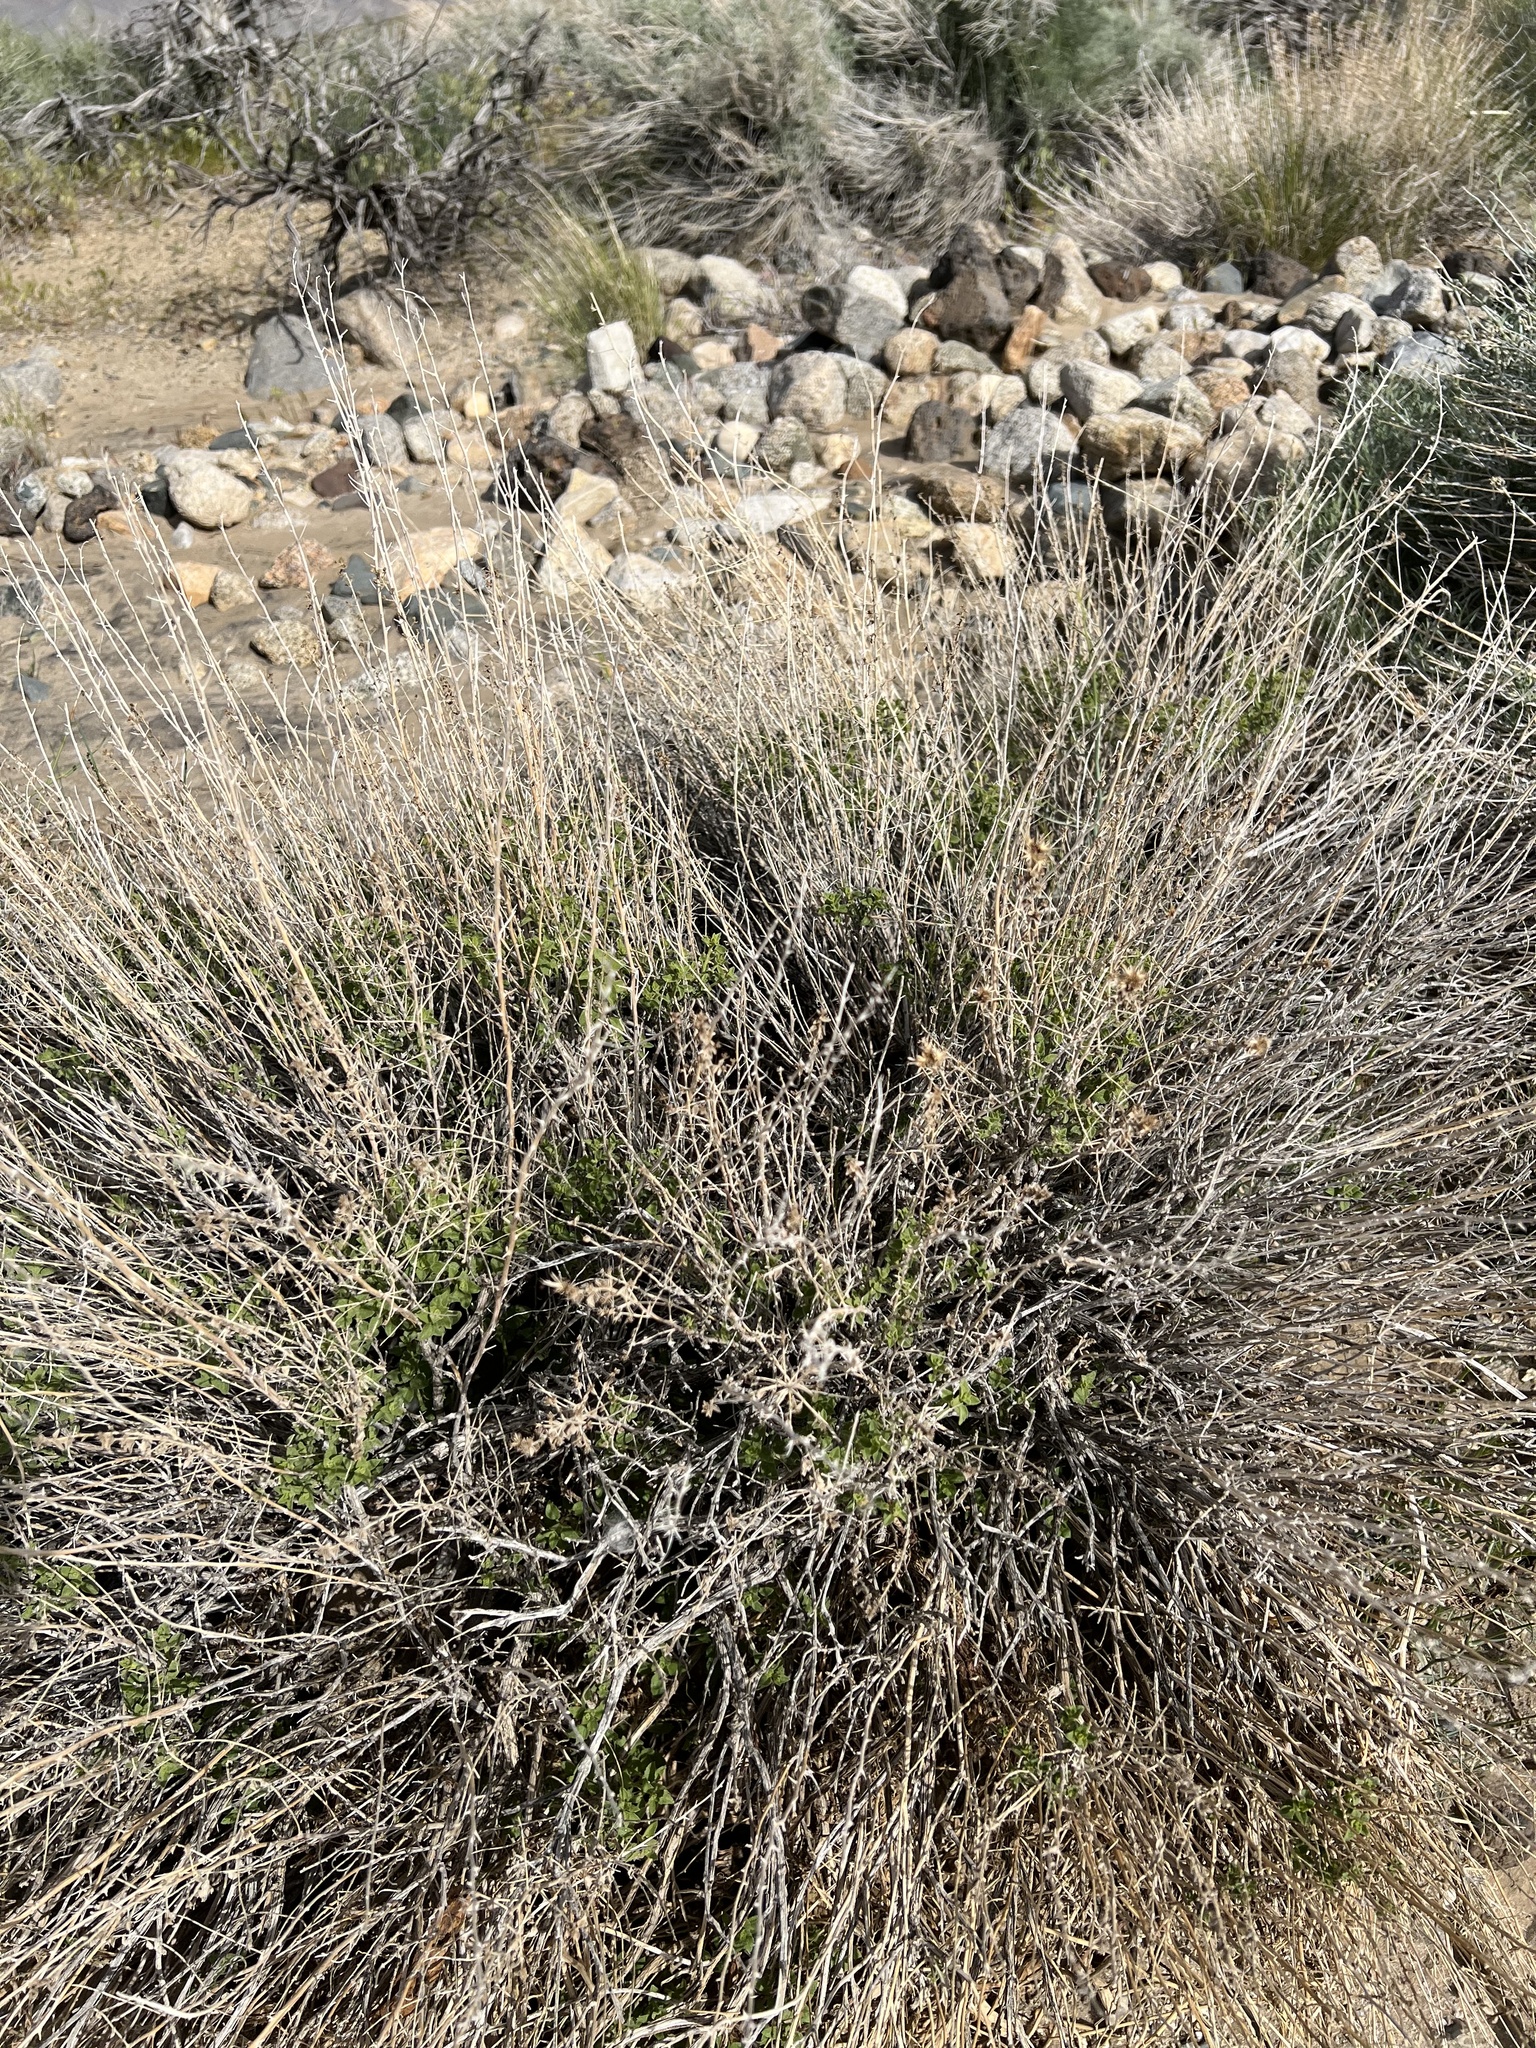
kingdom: Plantae
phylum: Tracheophyta
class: Magnoliopsida
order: Asterales
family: Asteraceae
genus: Brickellia
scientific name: Brickellia microphylla
